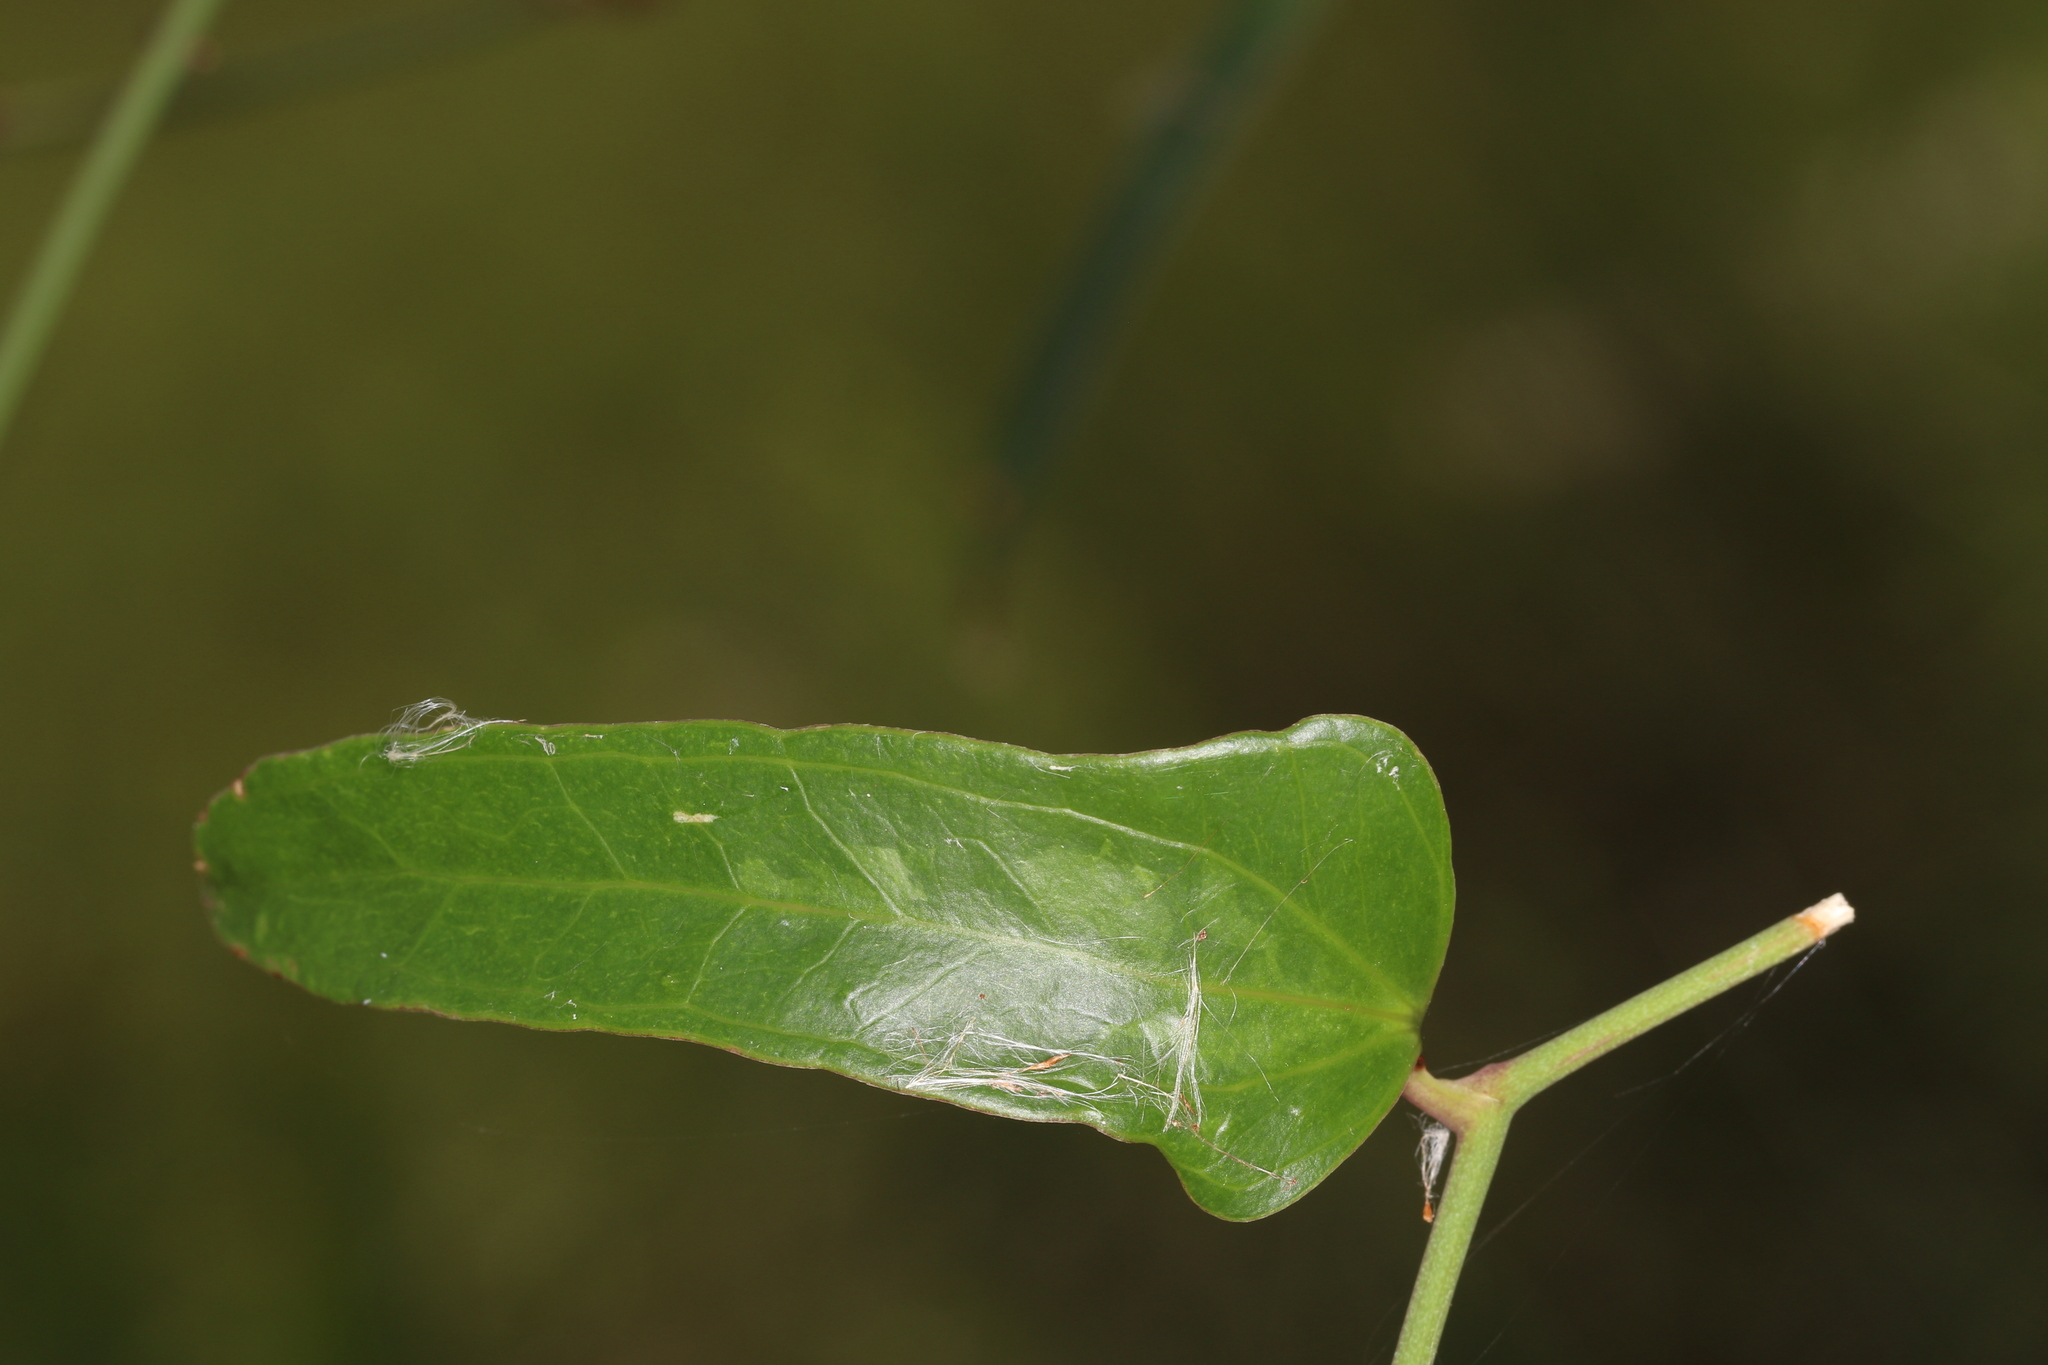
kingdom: Plantae
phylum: Tracheophyta
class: Liliopsida
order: Liliales
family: Smilacaceae
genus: Smilax
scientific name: Smilax auriculata
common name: Wild bamboo
